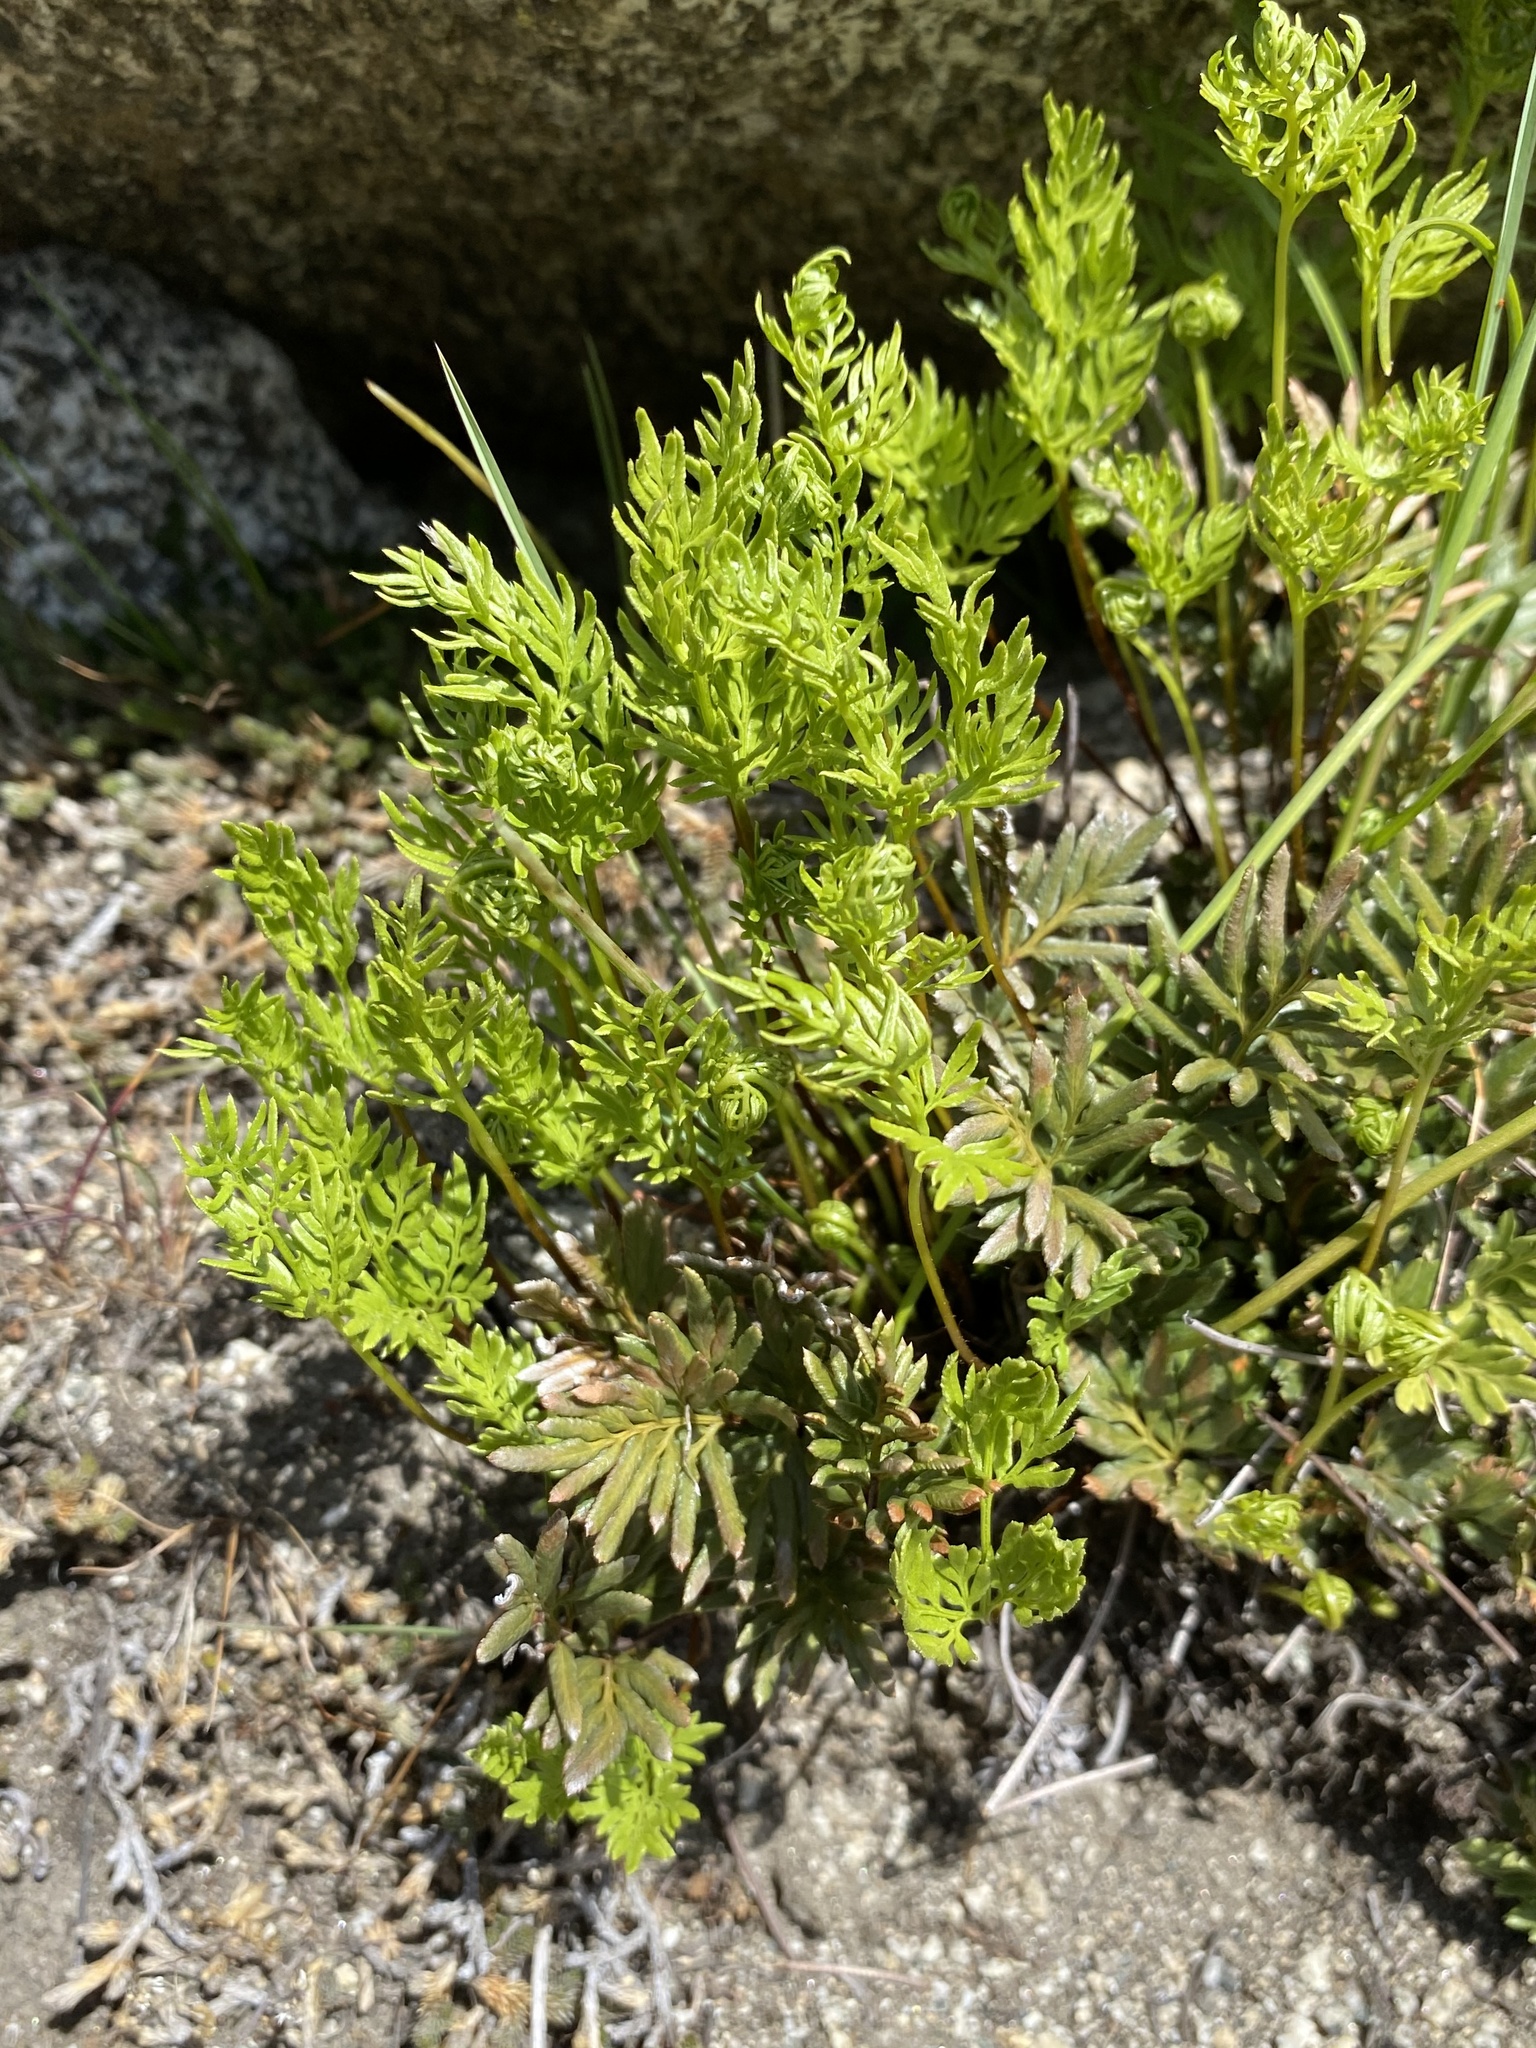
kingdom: Plantae
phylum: Tracheophyta
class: Polypodiopsida
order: Polypodiales
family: Pteridaceae
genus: Aspidotis
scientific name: Aspidotis densa
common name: Indian's dream
